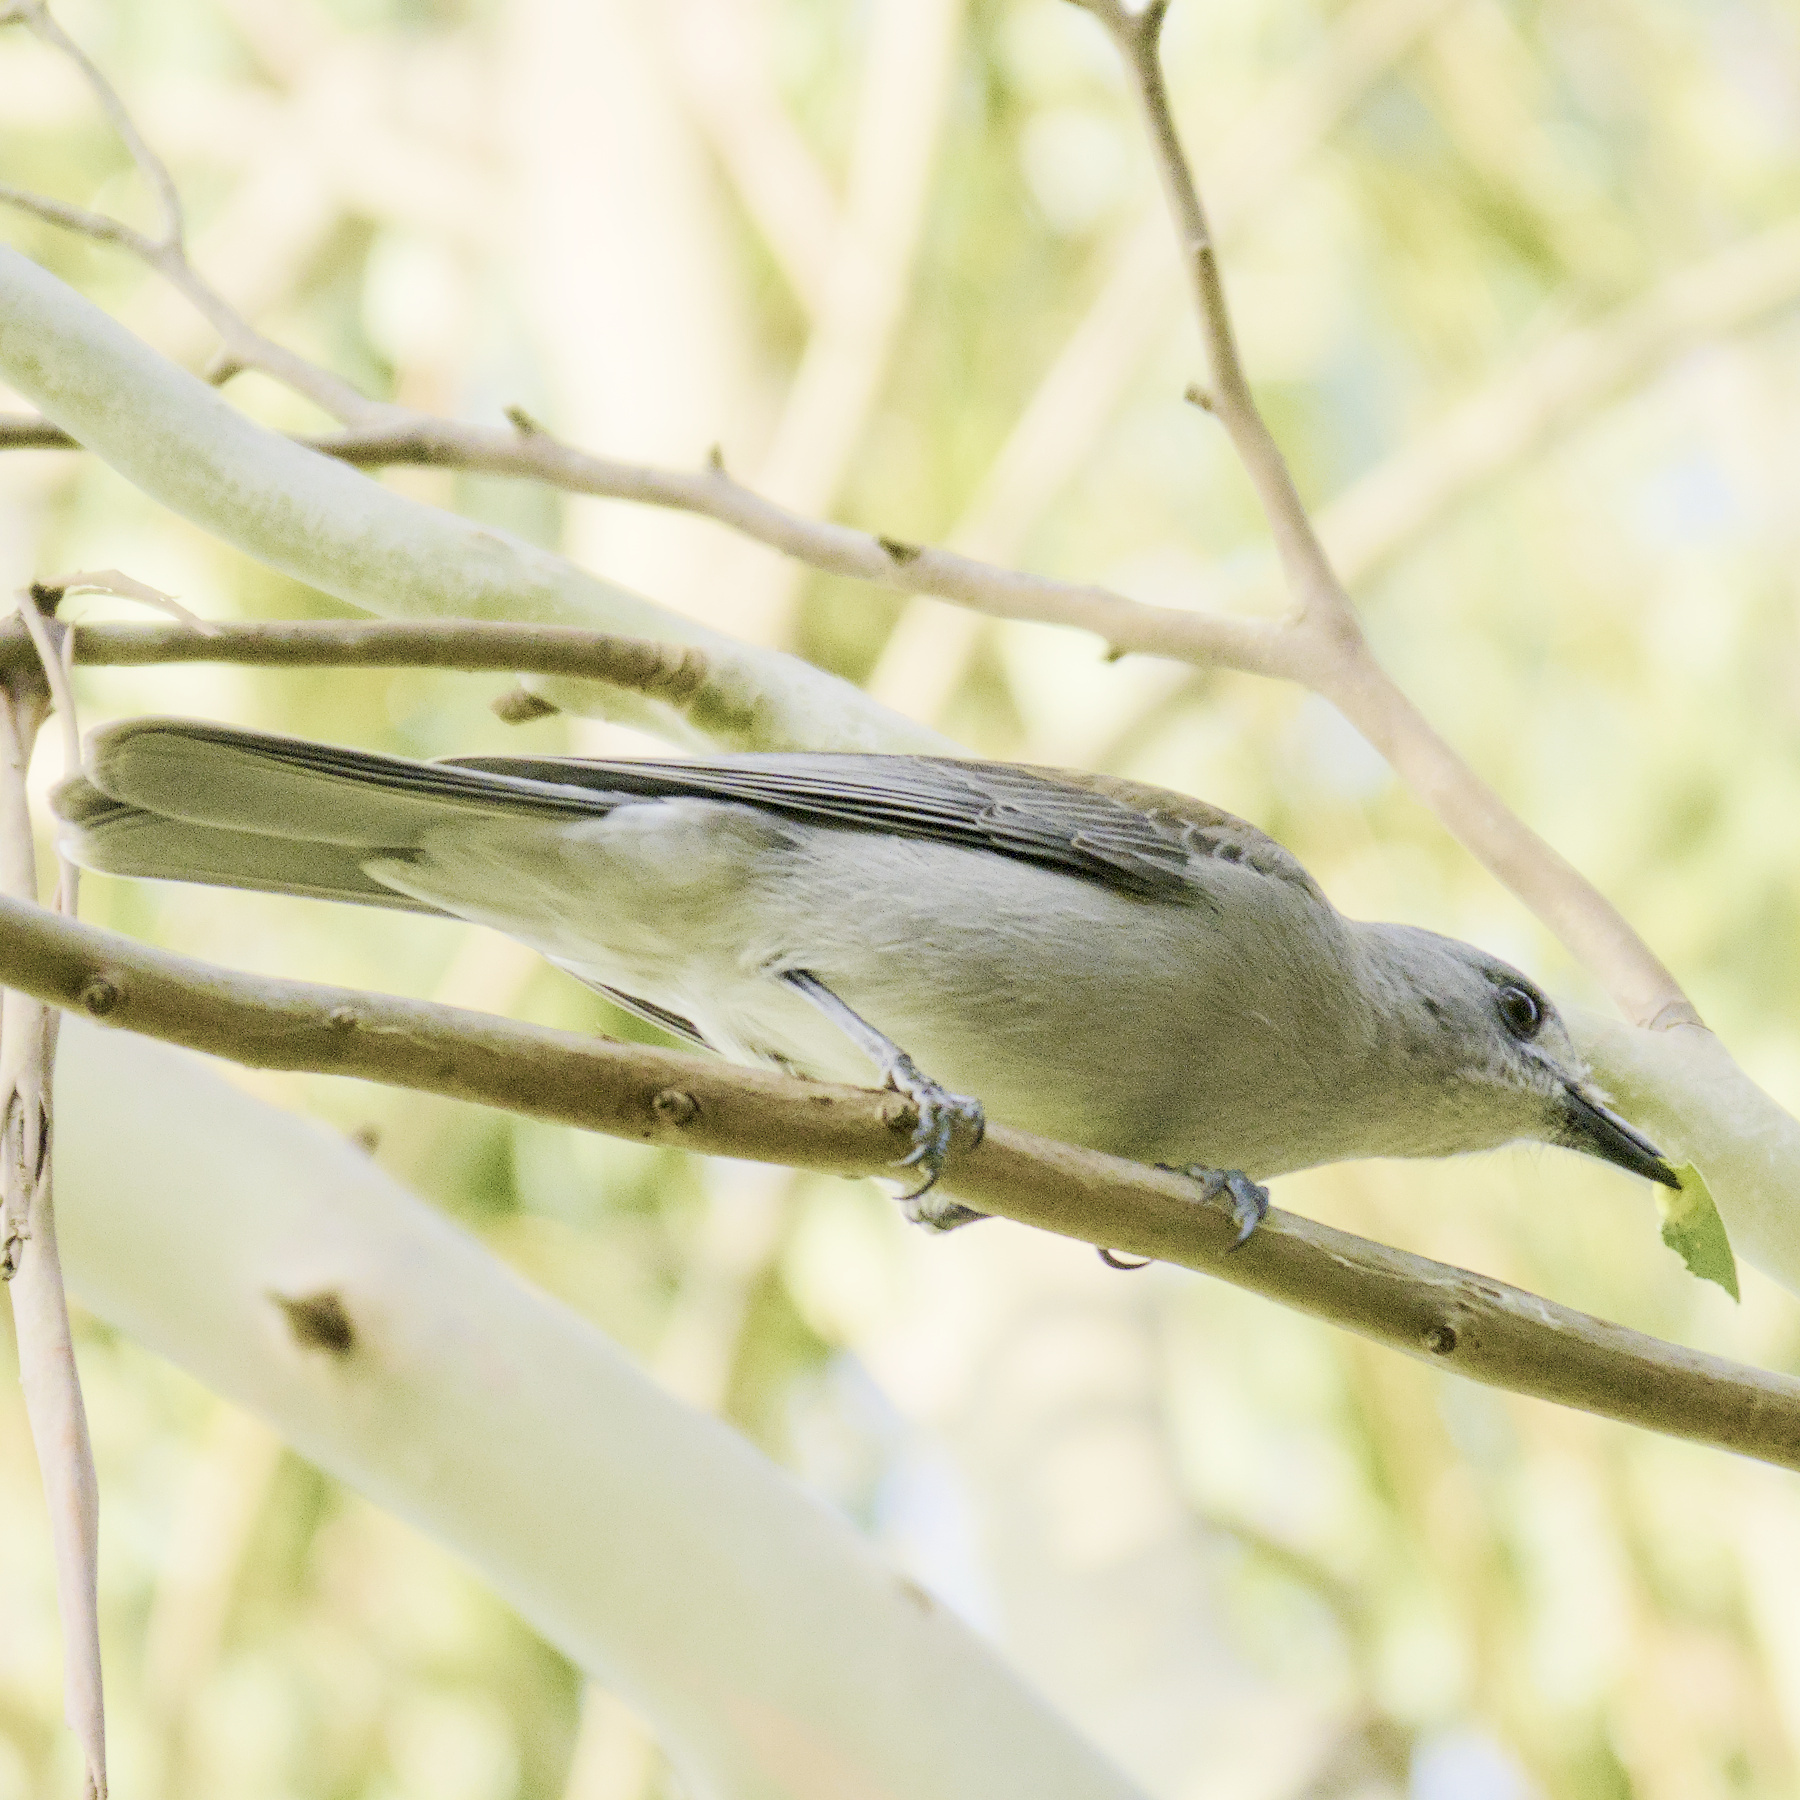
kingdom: Animalia
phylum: Chordata
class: Aves
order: Passeriformes
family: Pachycephalidae
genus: Colluricincla
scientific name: Colluricincla harmonica
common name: Grey shrikethrush
